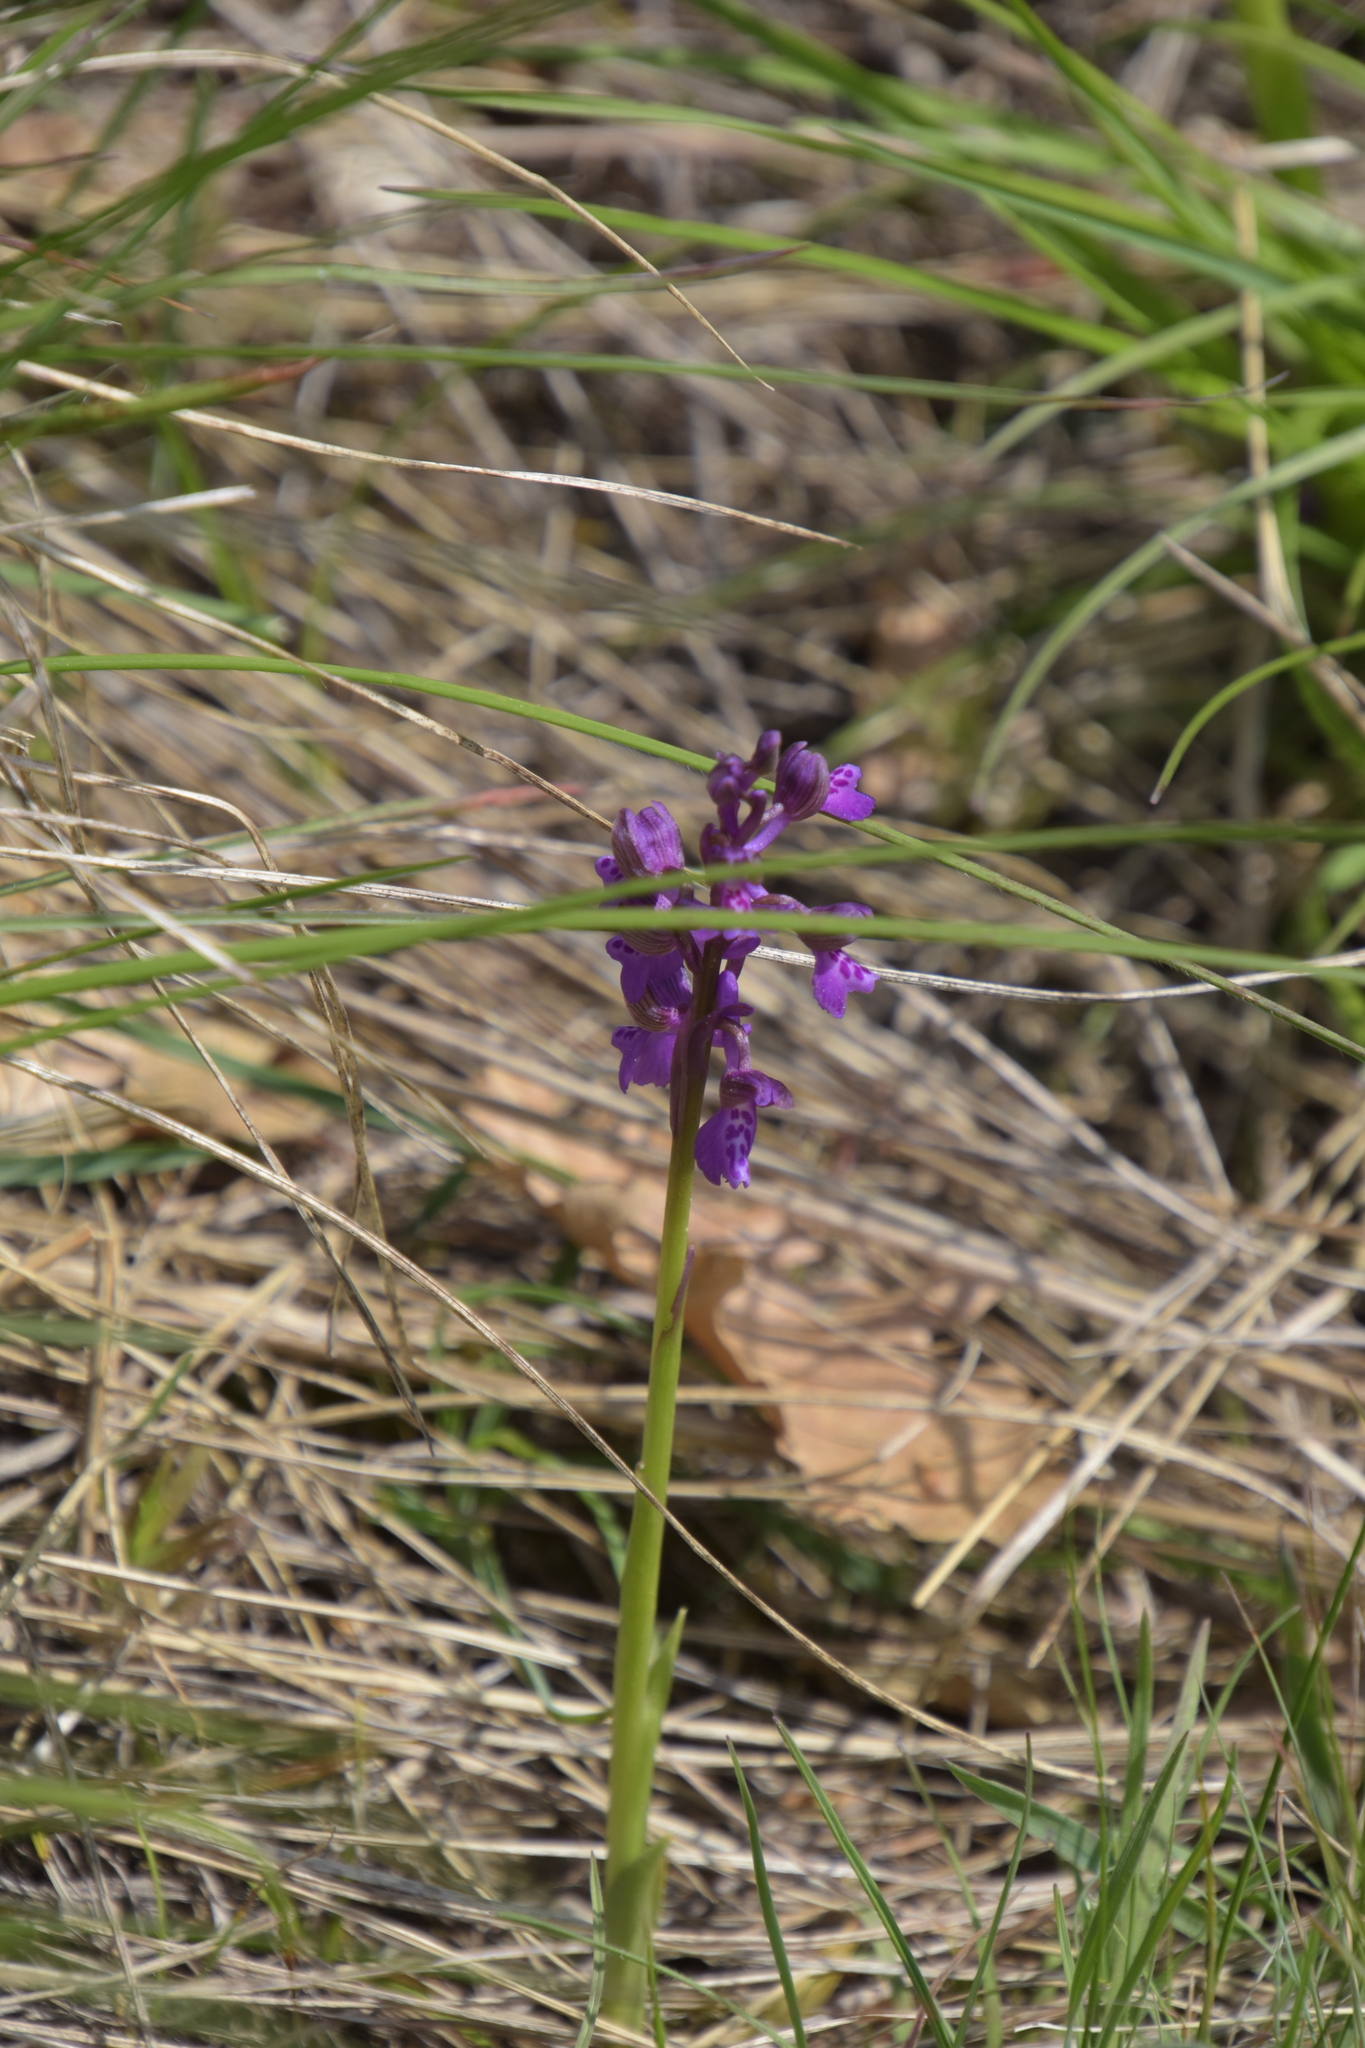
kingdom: Plantae
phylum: Tracheophyta
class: Liliopsida
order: Asparagales
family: Orchidaceae
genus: Anacamptis
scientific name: Anacamptis morio
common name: Green-winged orchid
